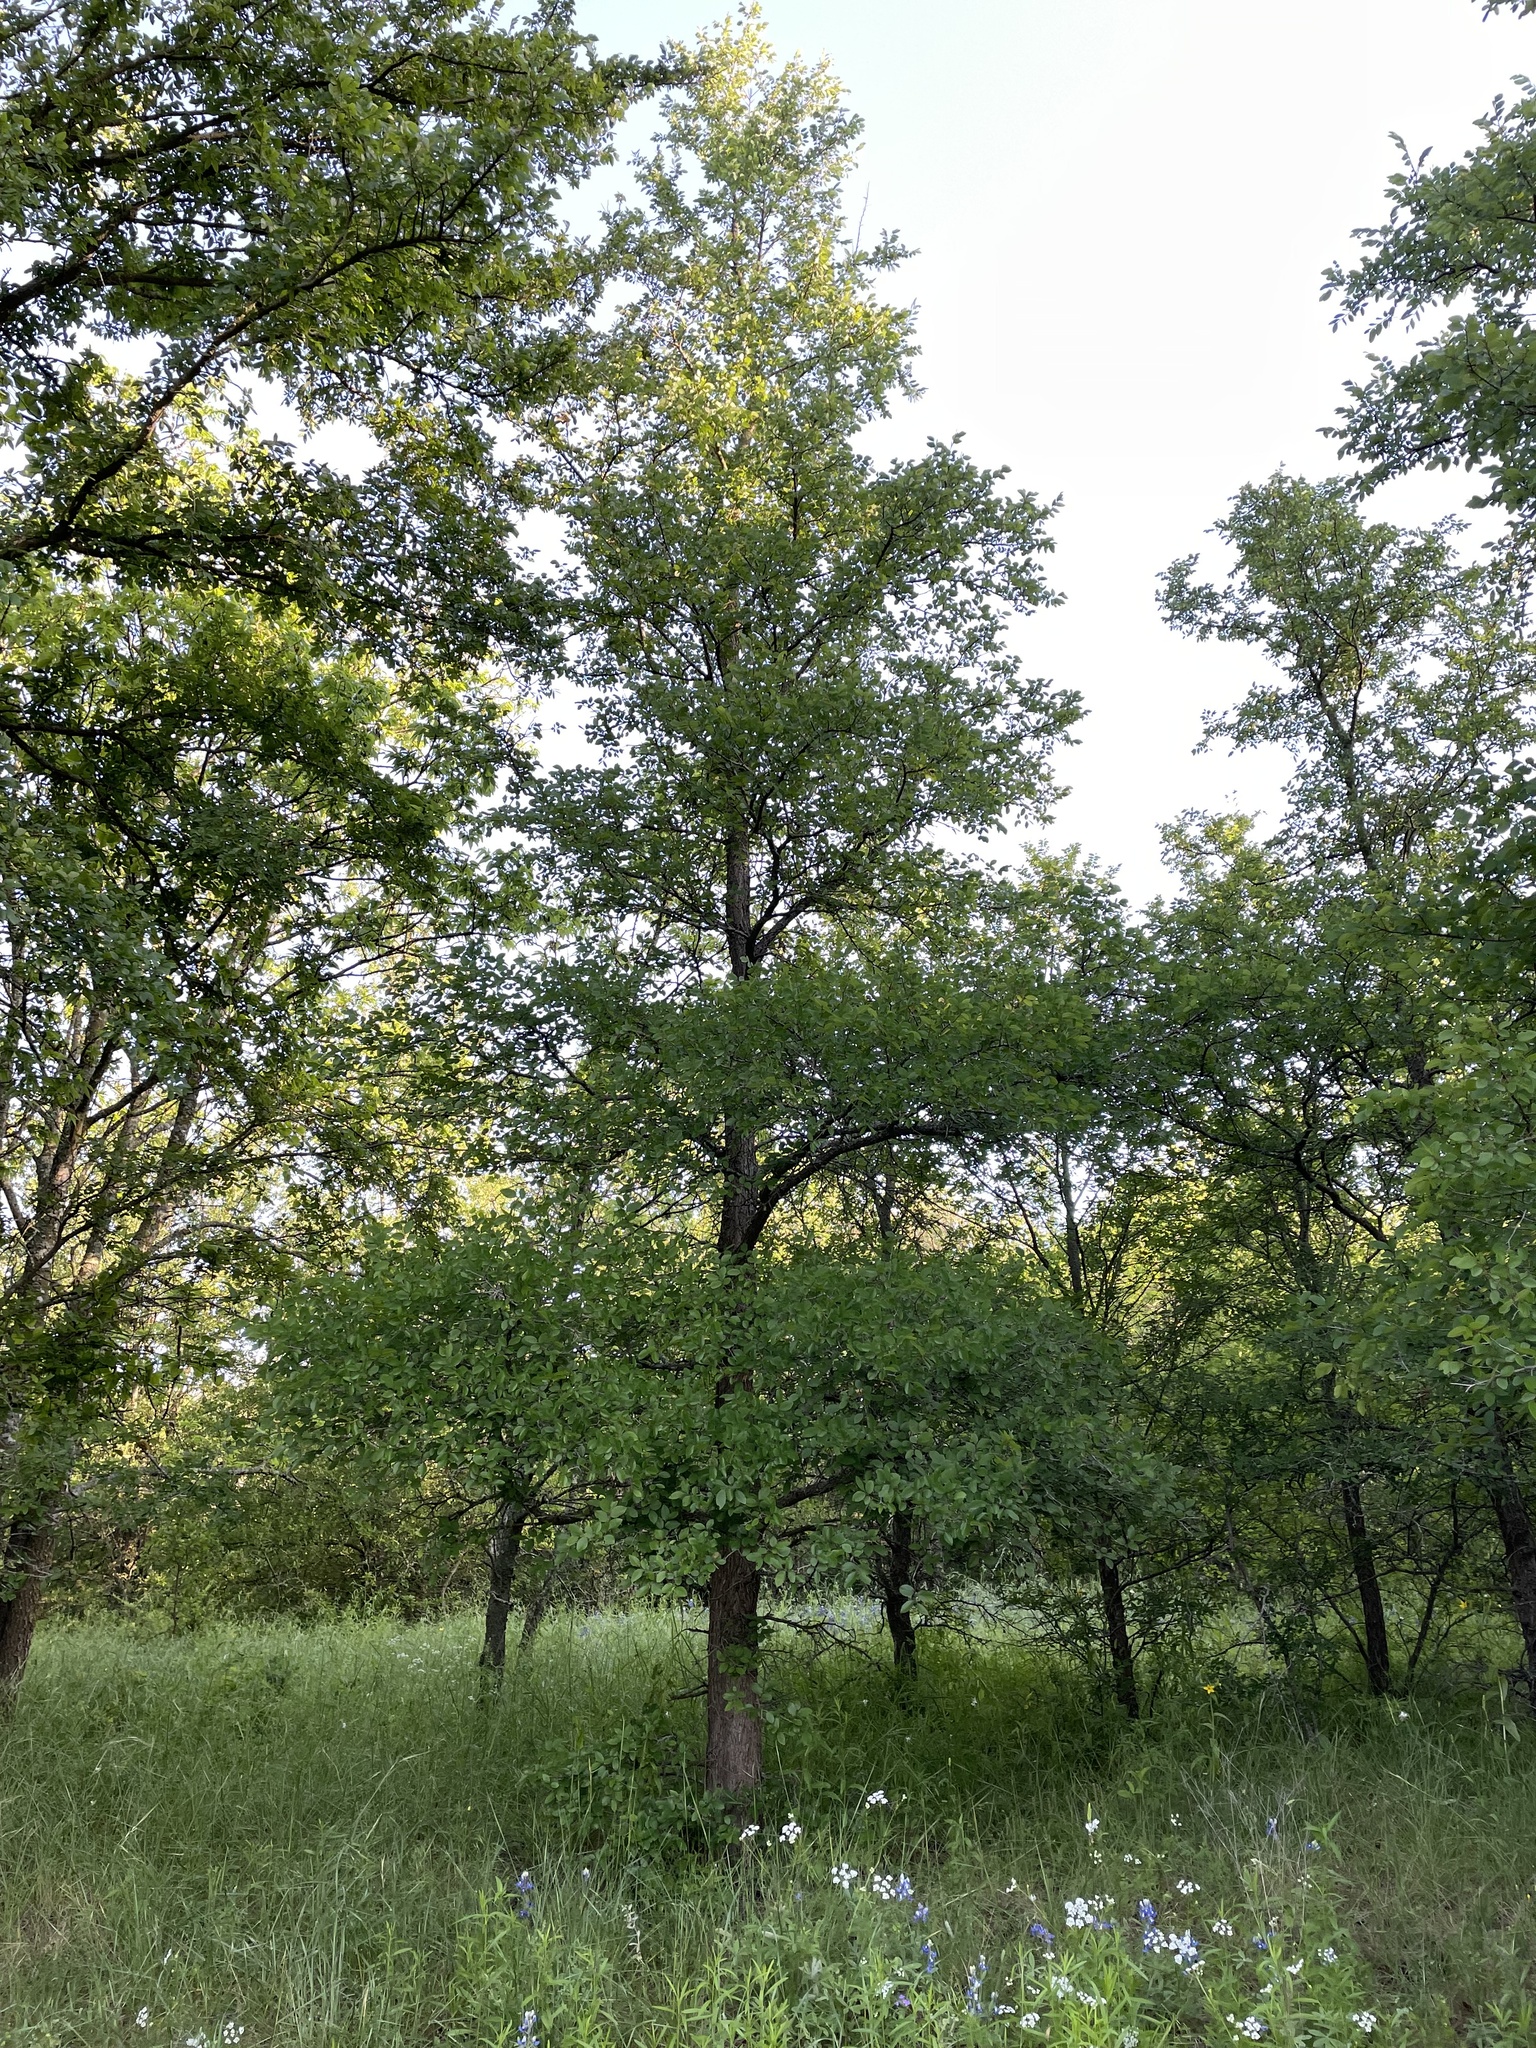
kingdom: Plantae
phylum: Tracheophyta
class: Magnoliopsida
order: Rosales
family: Ulmaceae
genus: Ulmus
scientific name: Ulmus crassifolia
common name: Basket elm
